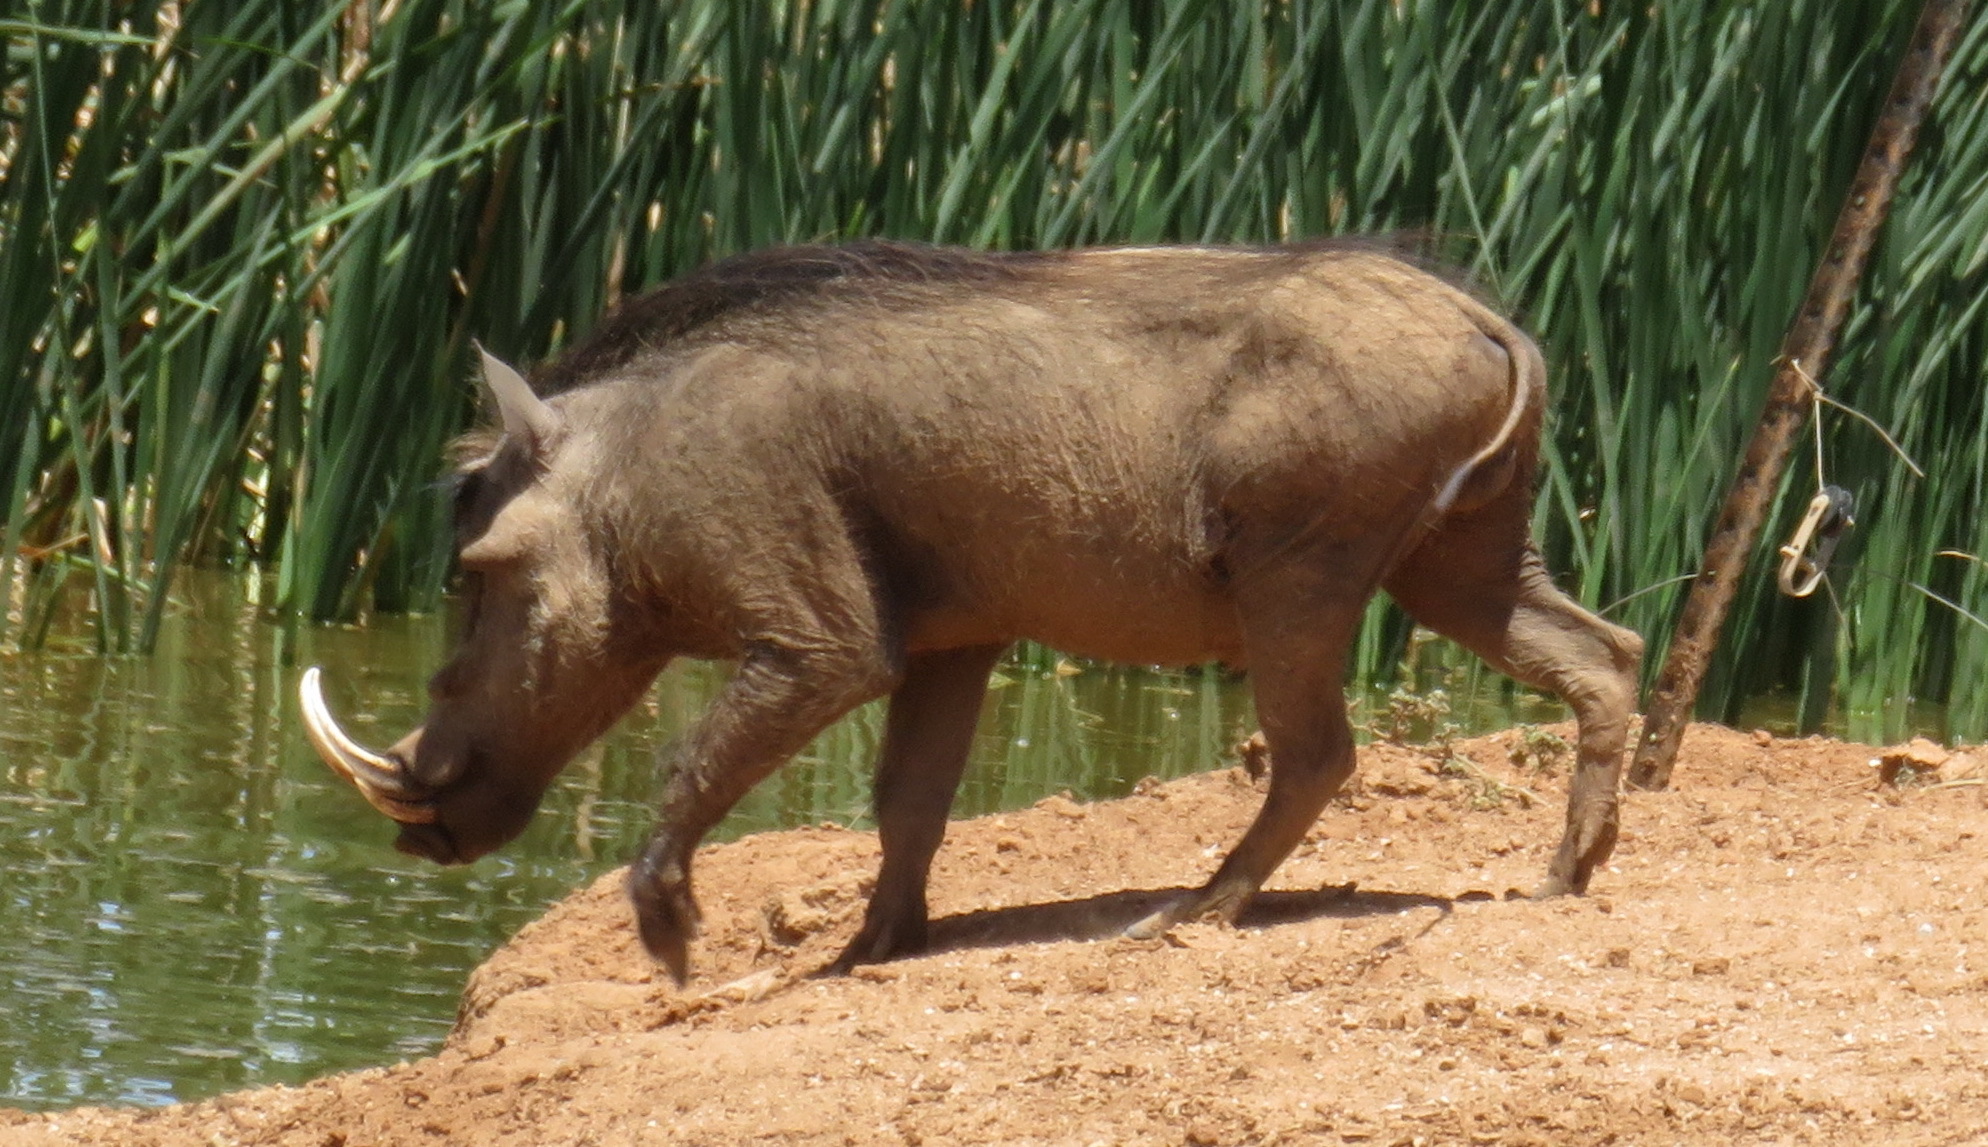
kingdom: Animalia
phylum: Chordata
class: Mammalia
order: Artiodactyla
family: Suidae
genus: Phacochoerus
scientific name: Phacochoerus africanus
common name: Common warthog
